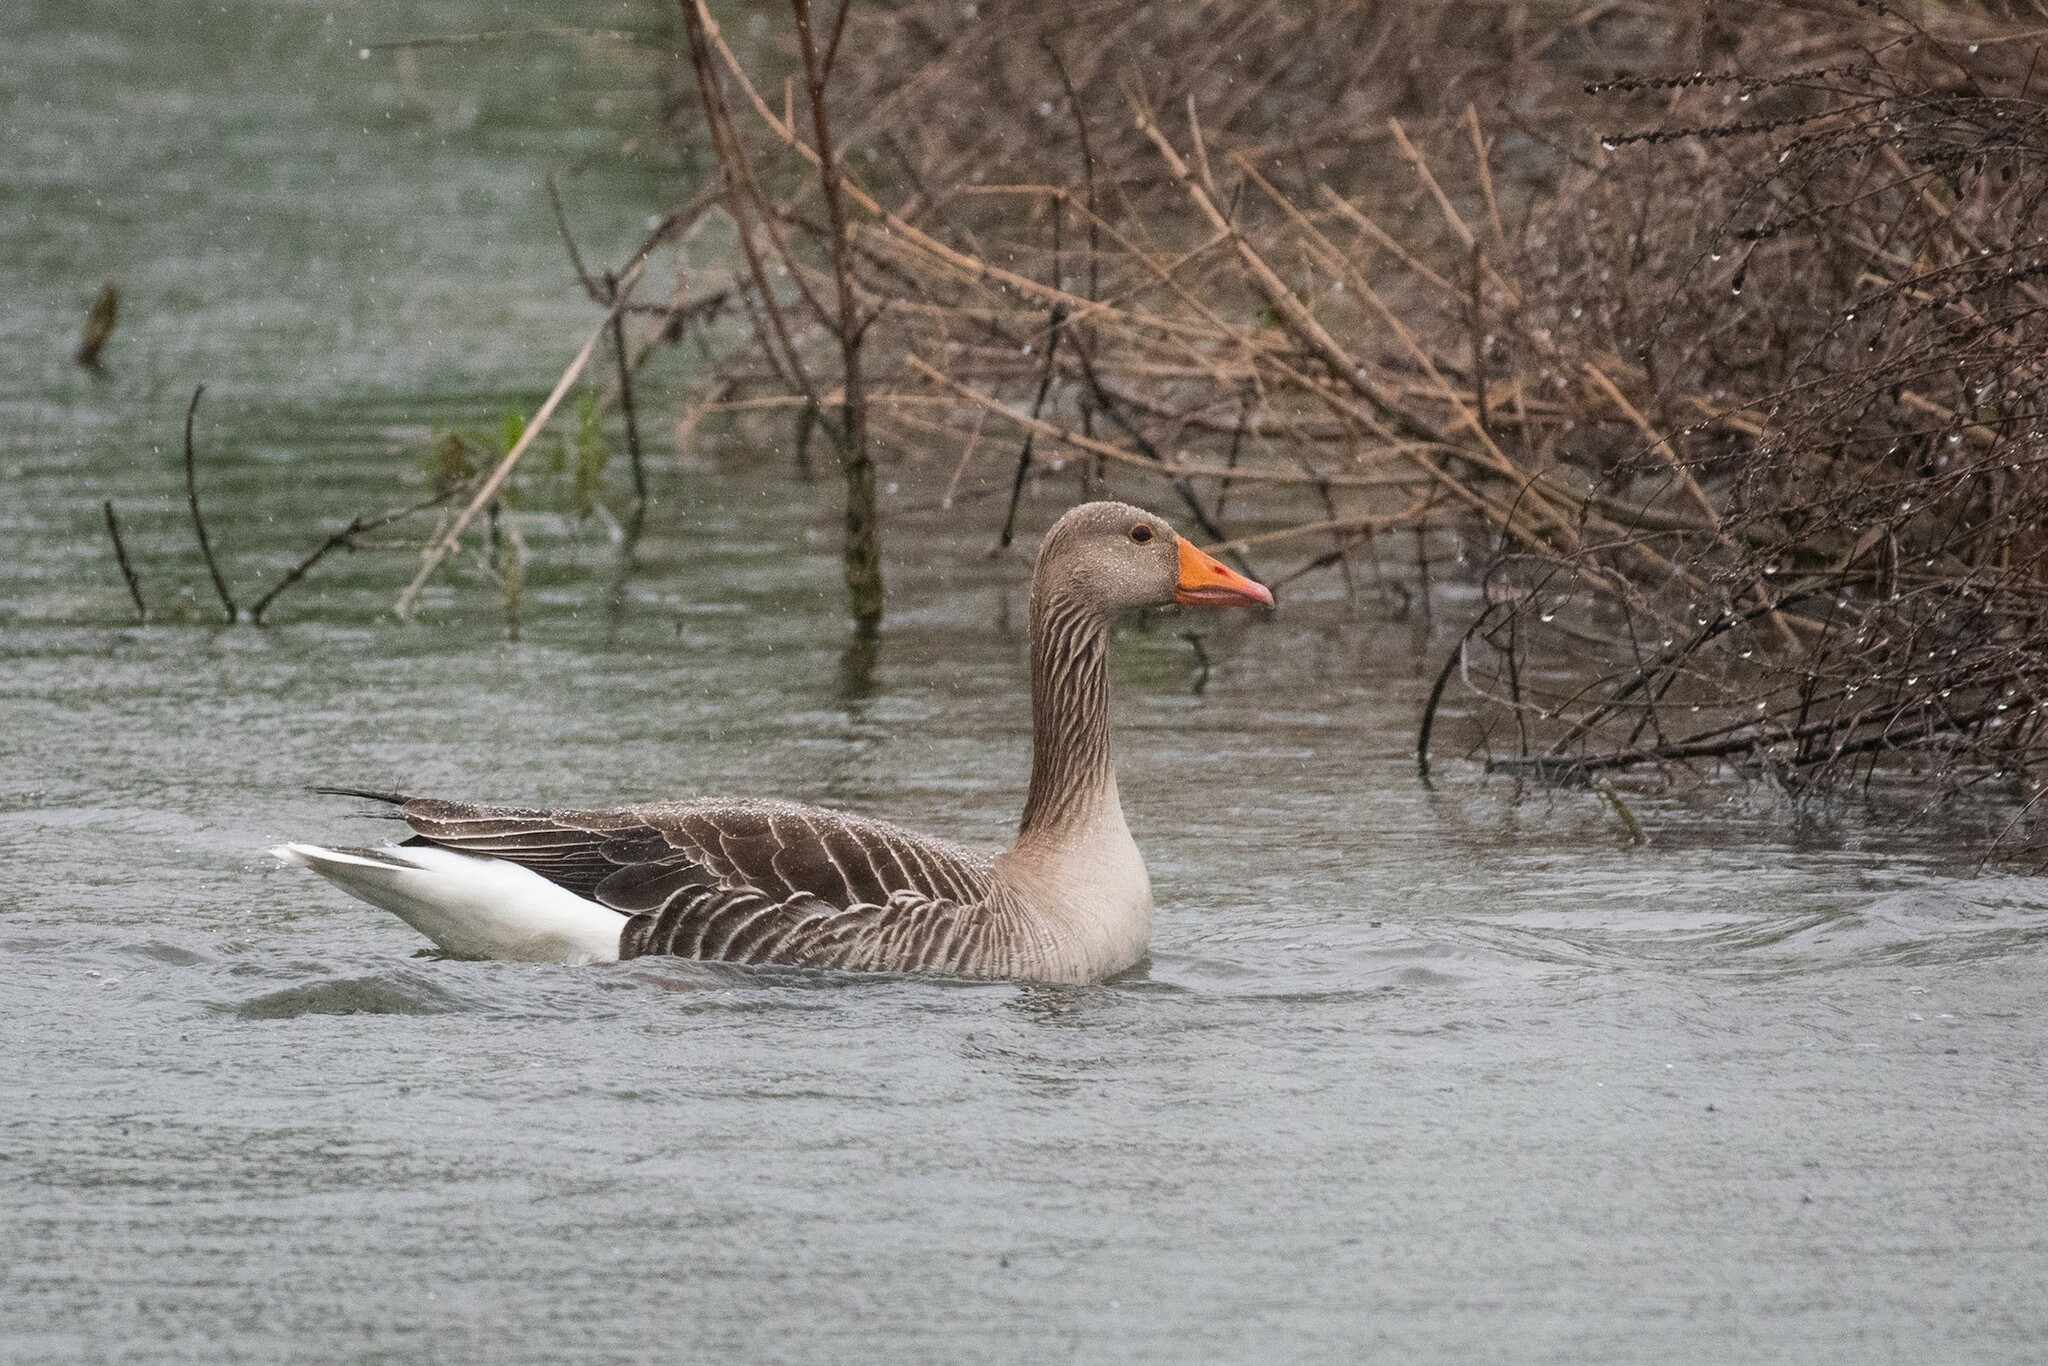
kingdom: Animalia
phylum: Chordata
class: Aves
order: Anseriformes
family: Anatidae
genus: Anser
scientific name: Anser anser
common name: Greylag goose
